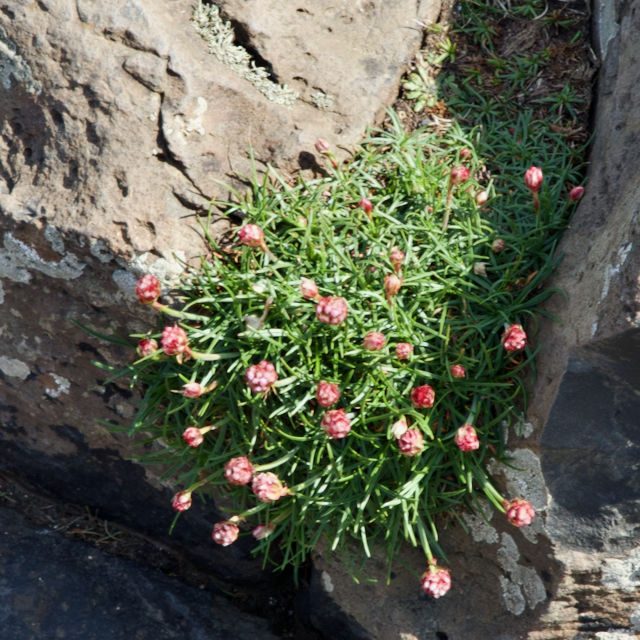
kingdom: Plantae
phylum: Tracheophyta
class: Magnoliopsida
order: Caryophyllales
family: Plumbaginaceae
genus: Armeria
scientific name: Armeria maritima
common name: Thrift
